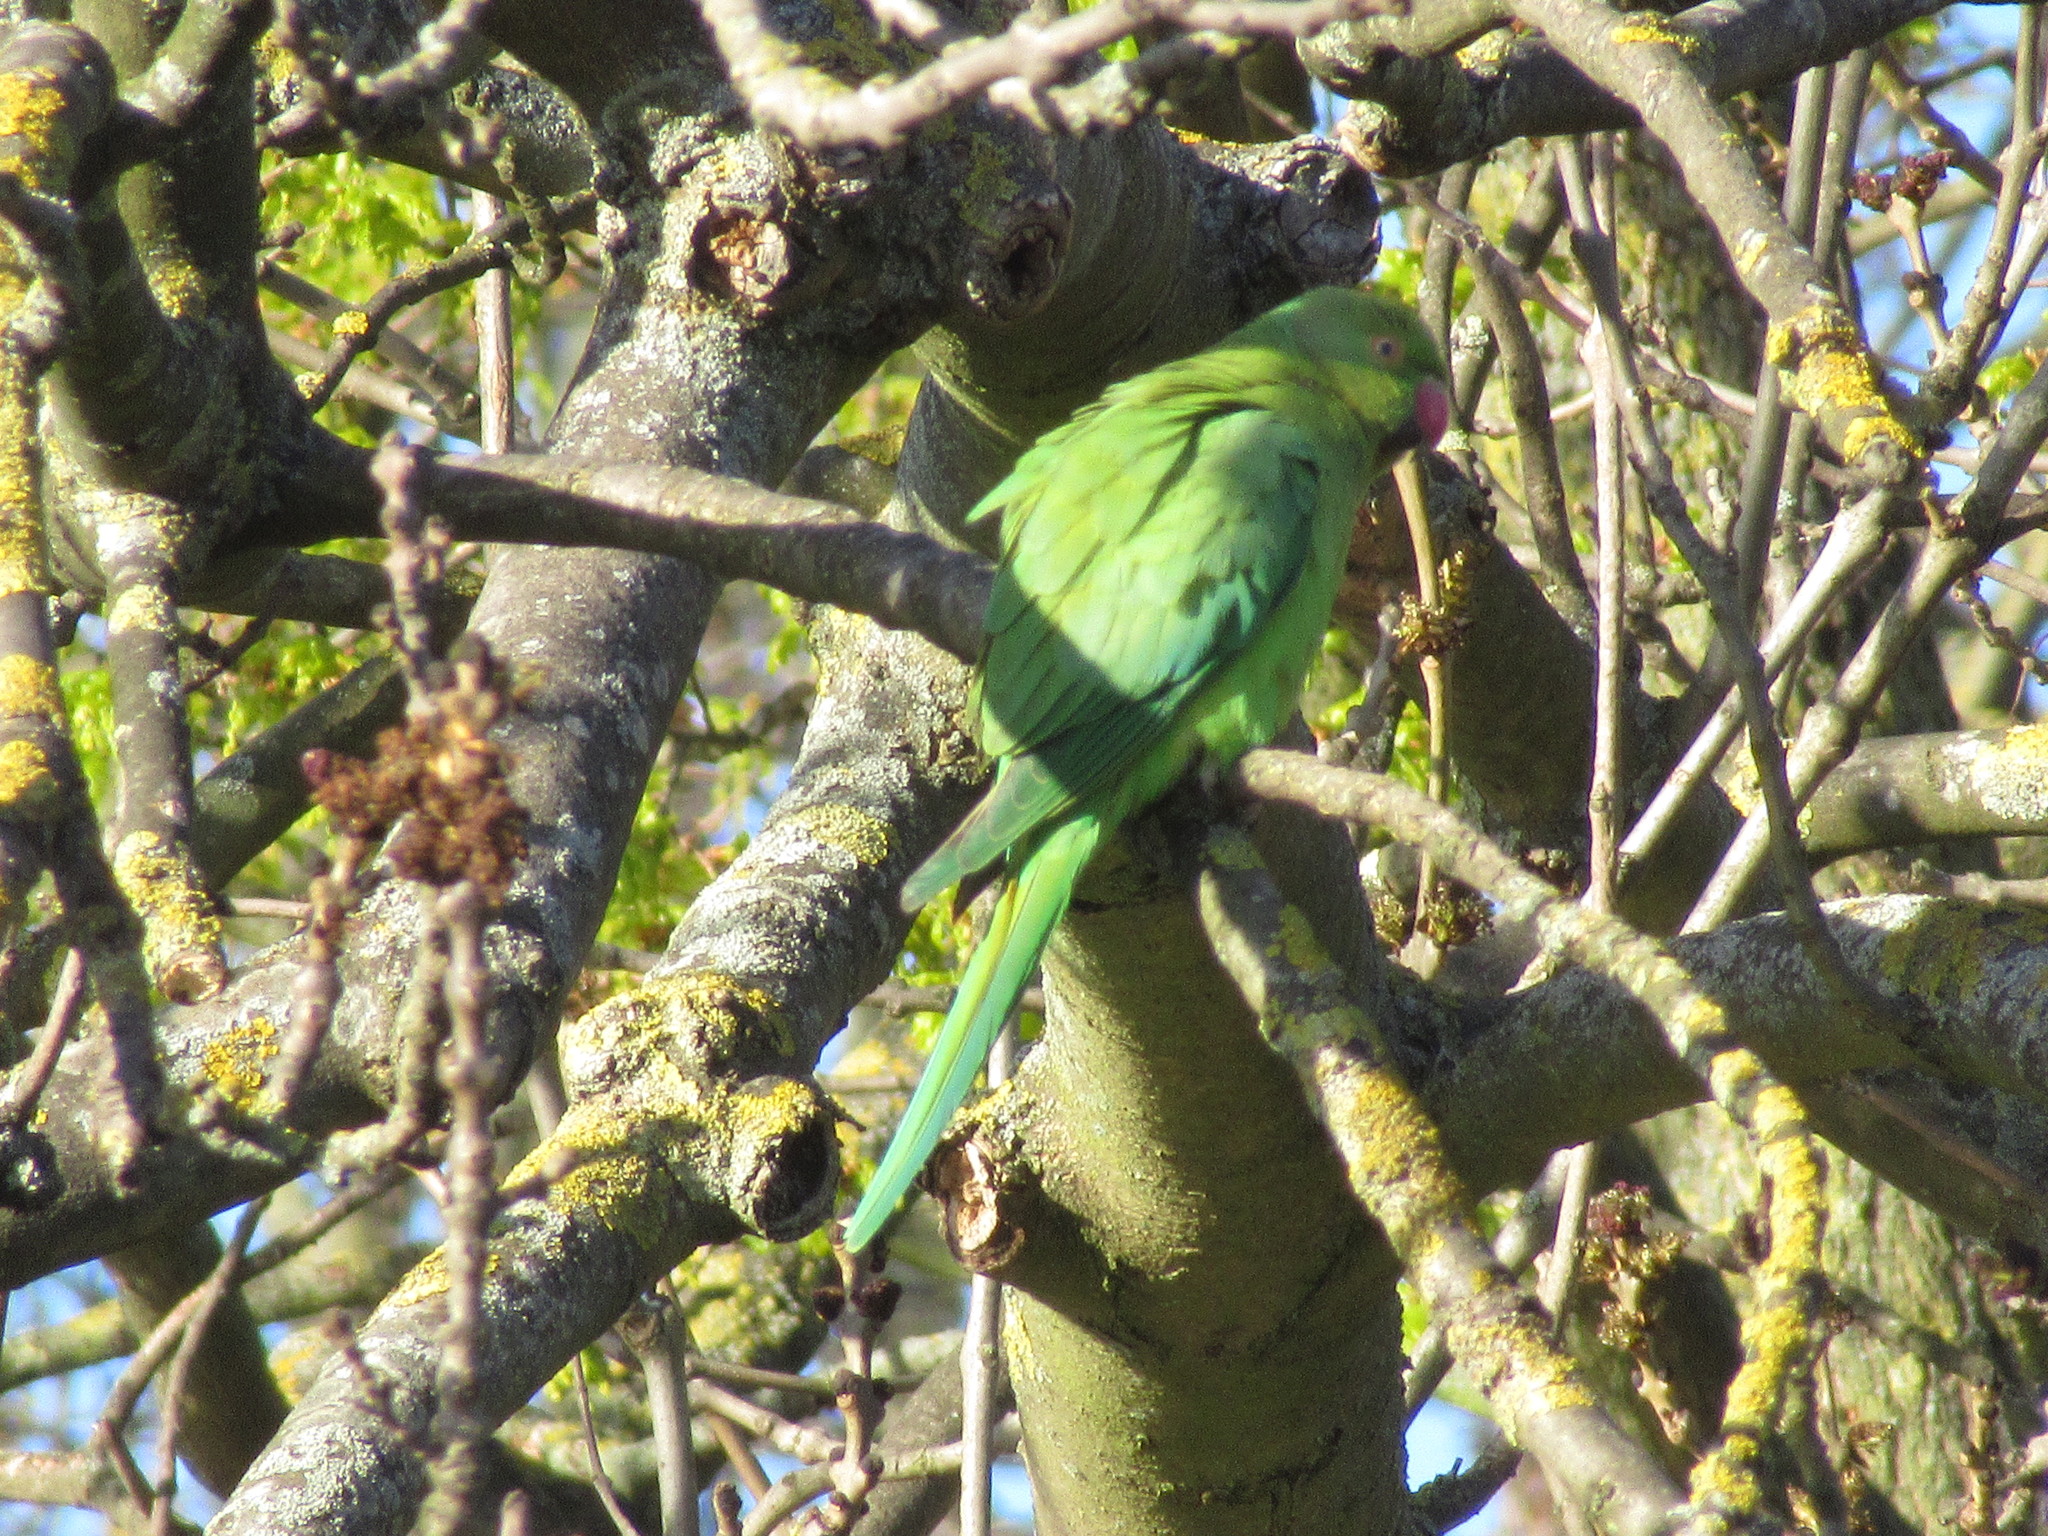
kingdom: Animalia
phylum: Chordata
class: Aves
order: Psittaciformes
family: Psittacidae
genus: Psittacula
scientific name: Psittacula krameri
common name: Rose-ringed parakeet
